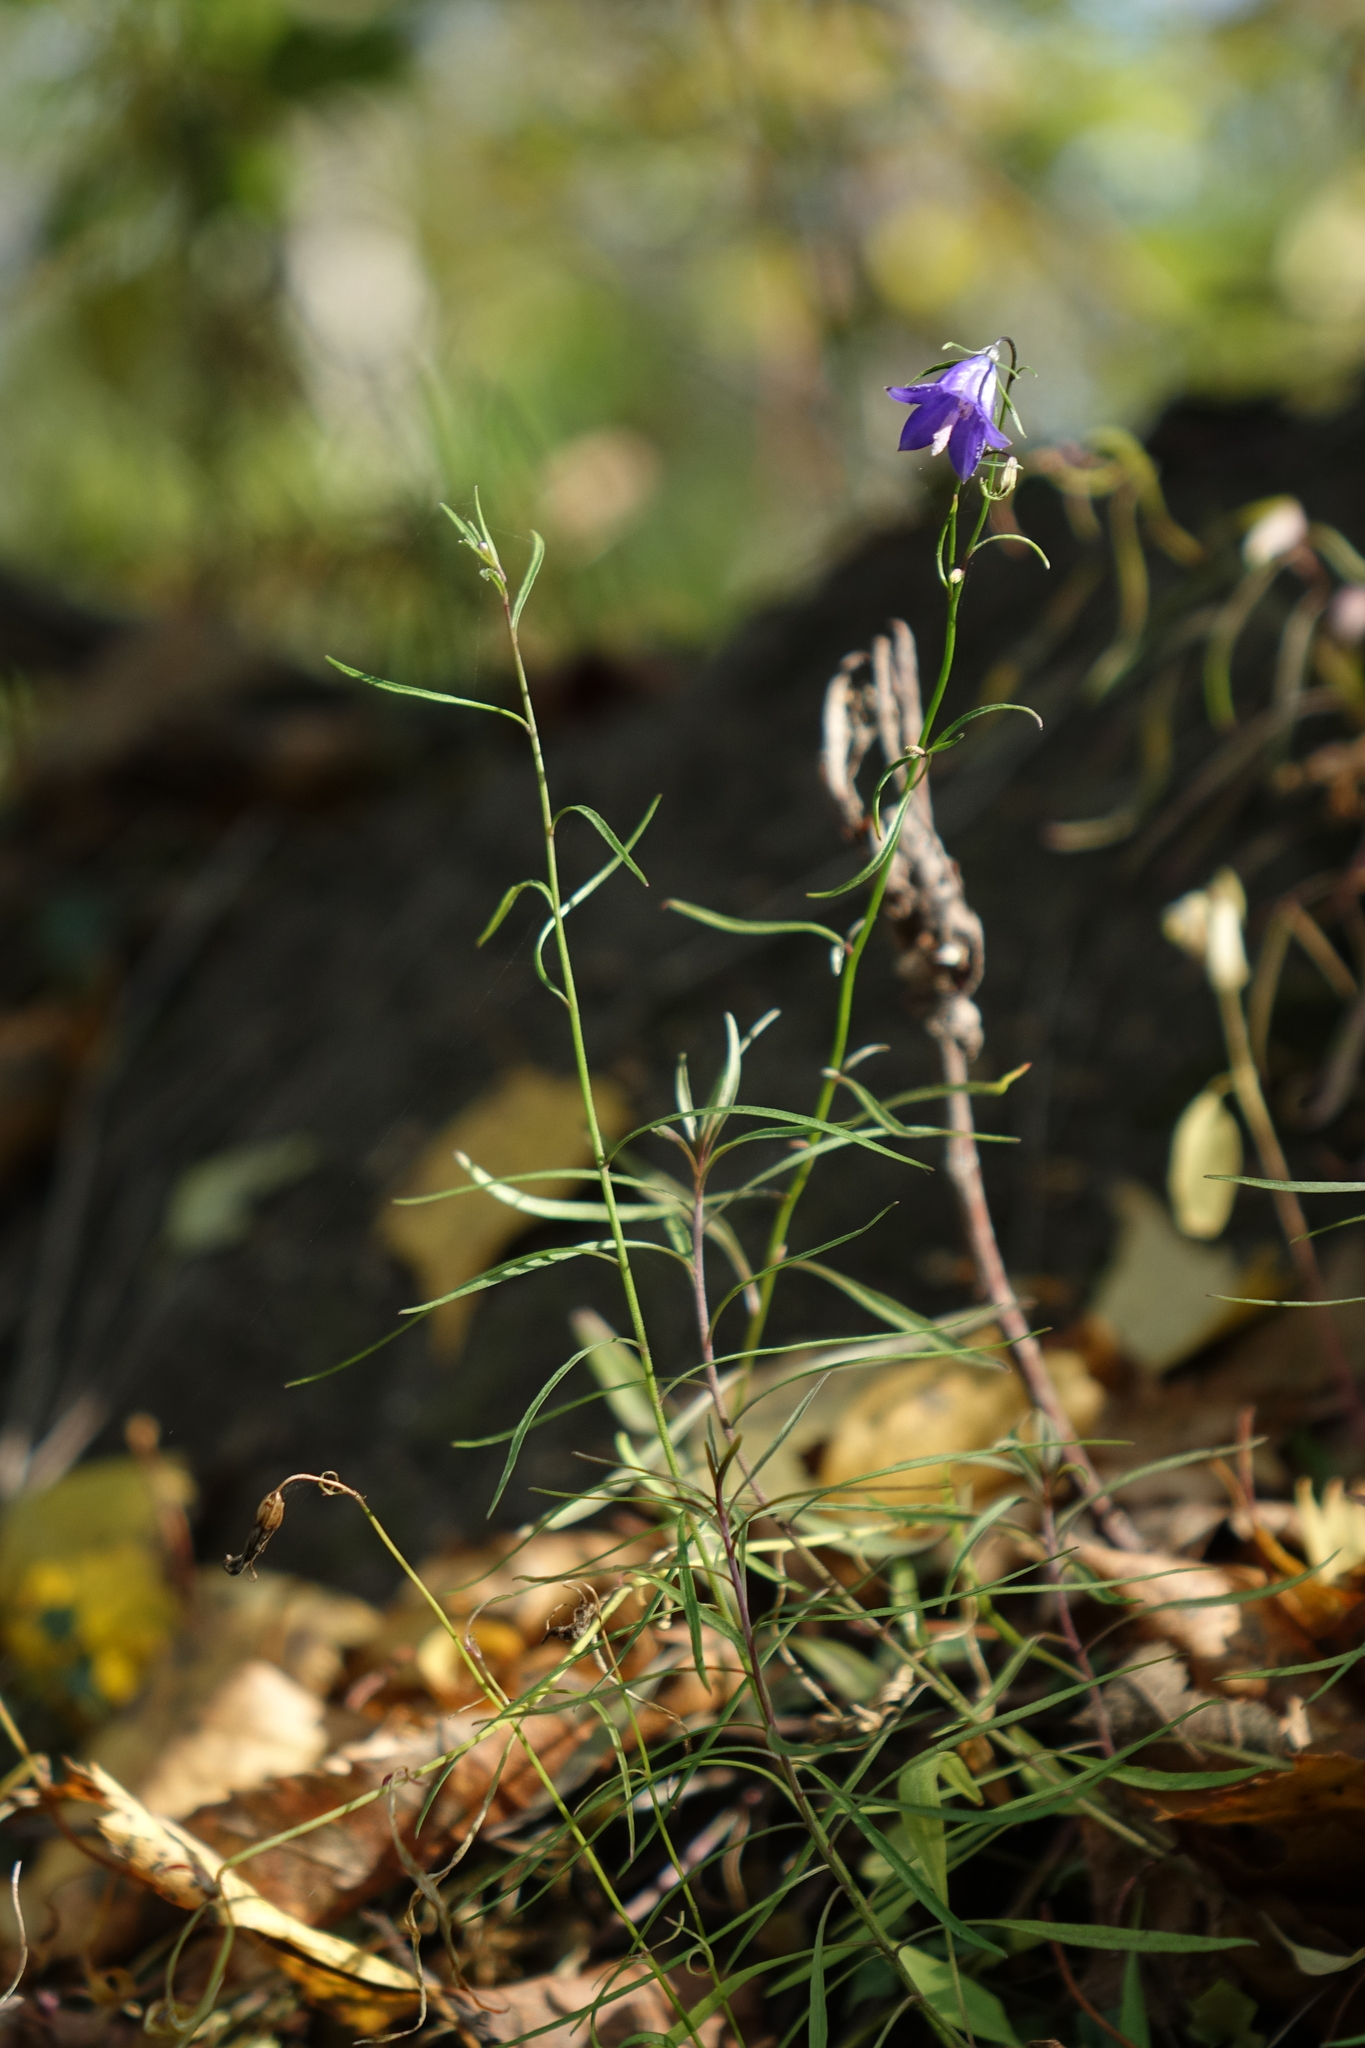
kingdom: Plantae
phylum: Tracheophyta
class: Magnoliopsida
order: Asterales
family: Campanulaceae
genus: Campanula
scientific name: Campanula rotundifolia
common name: Harebell
